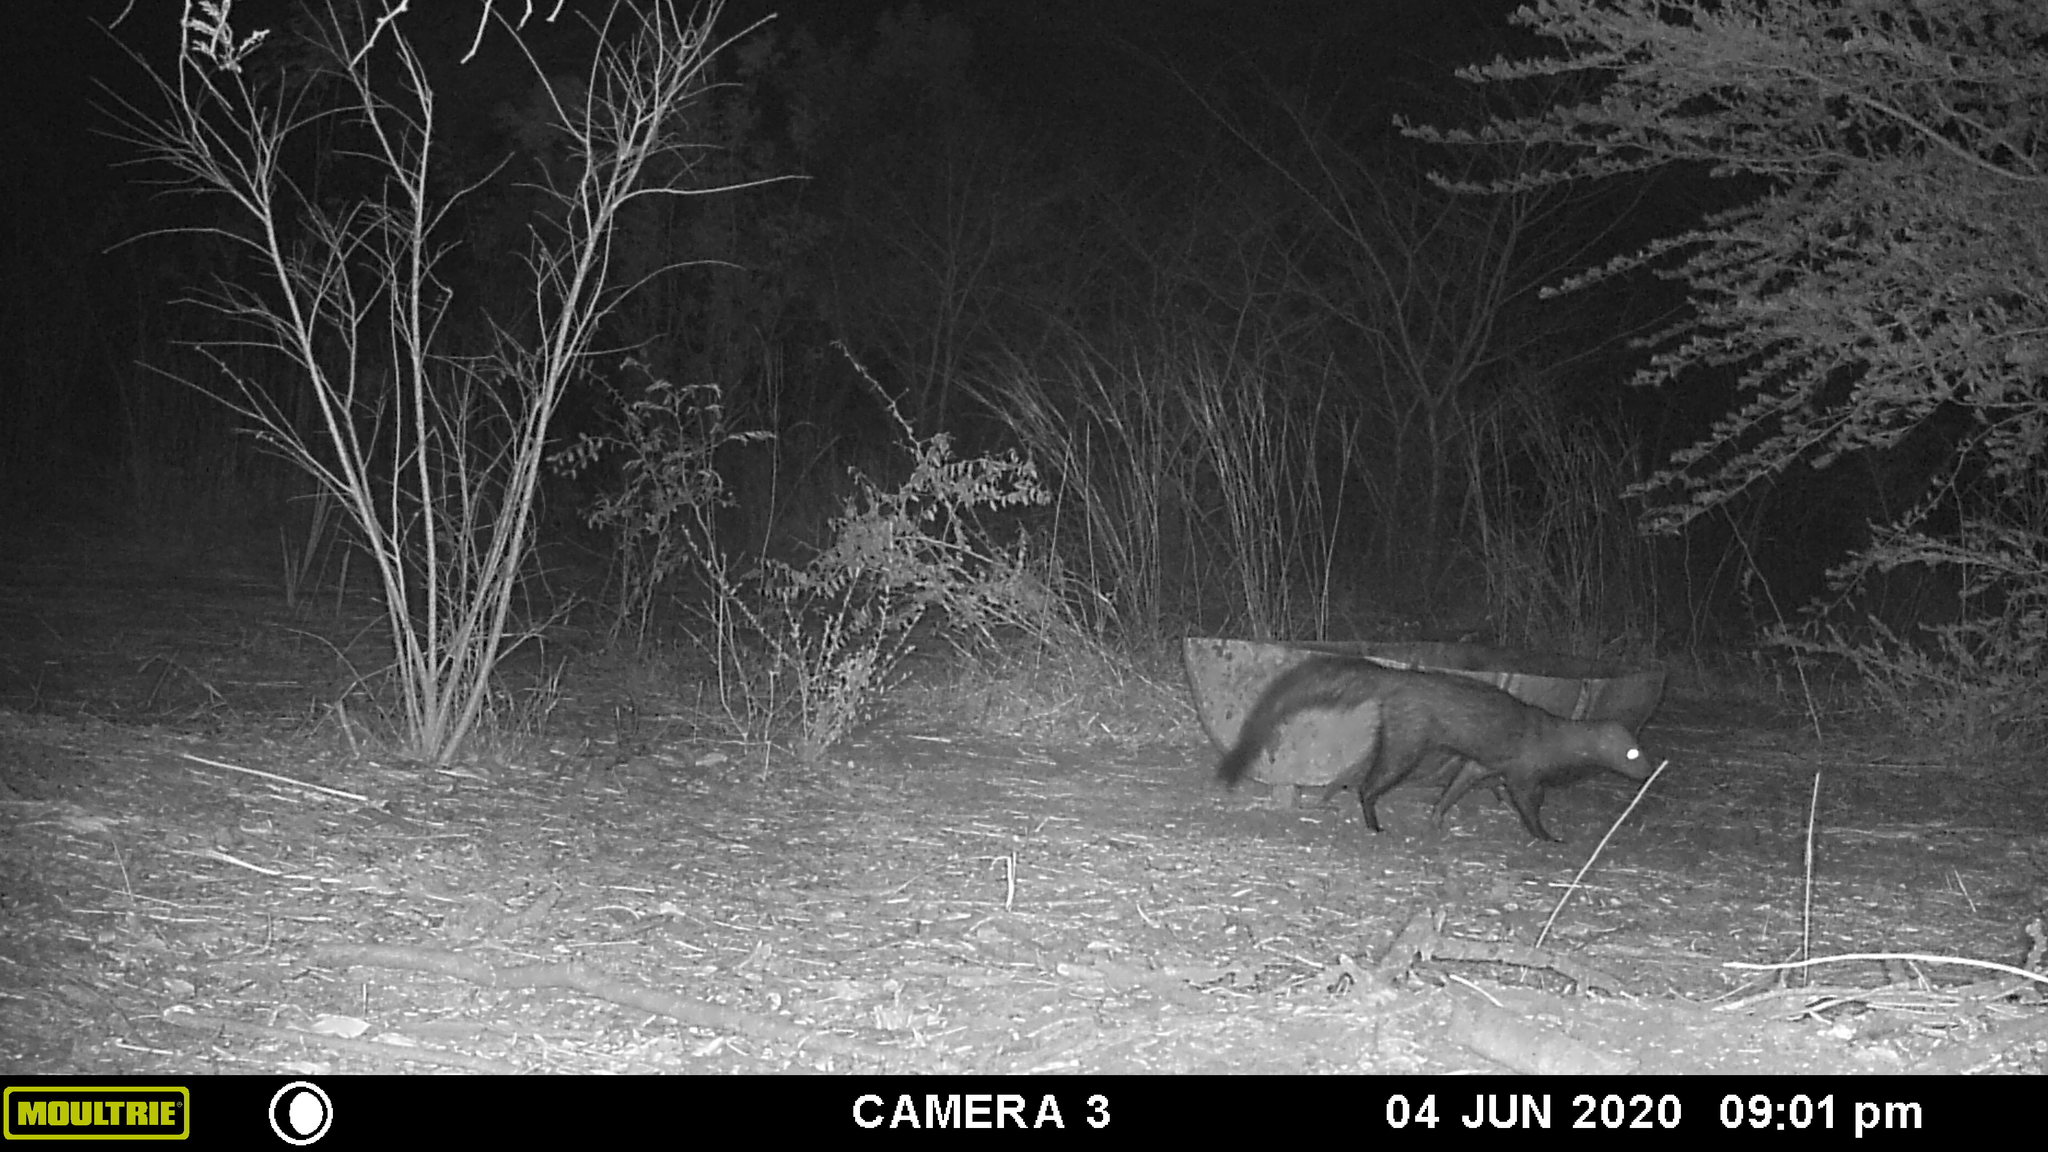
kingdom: Animalia
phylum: Chordata
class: Mammalia
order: Carnivora
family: Herpestidae
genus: Atilax
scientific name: Atilax paludinosus
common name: Marsh mongoose
